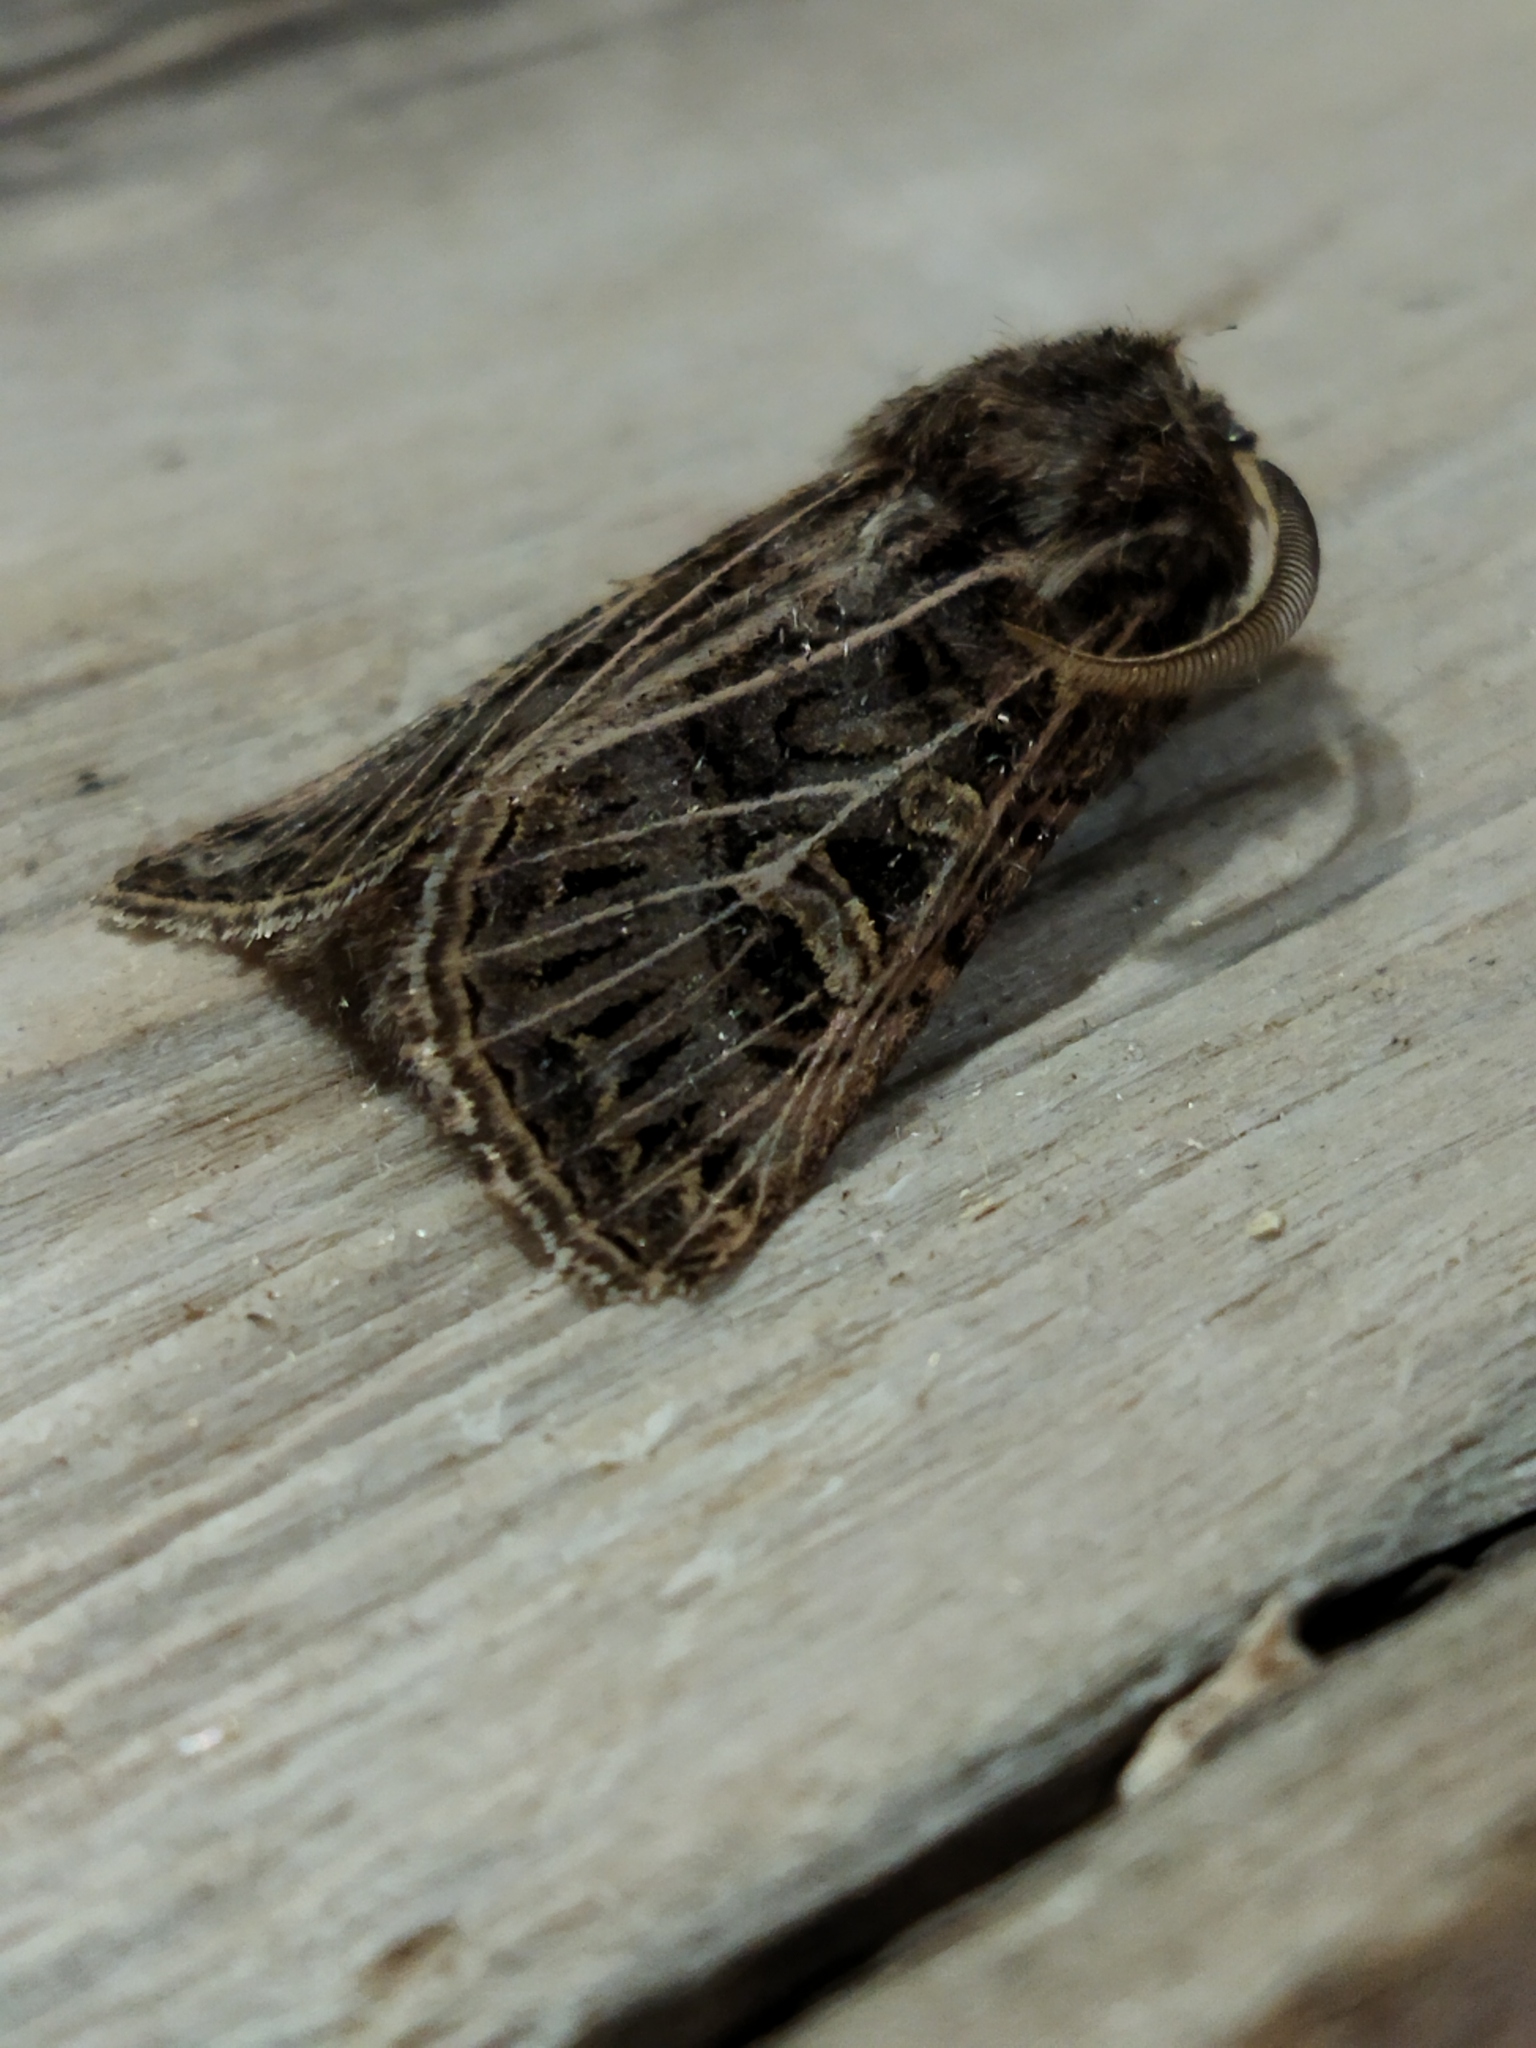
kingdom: Animalia
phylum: Arthropoda
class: Insecta
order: Lepidoptera
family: Noctuidae
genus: Tholera
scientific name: Tholera decimalis
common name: Feathered gothic
